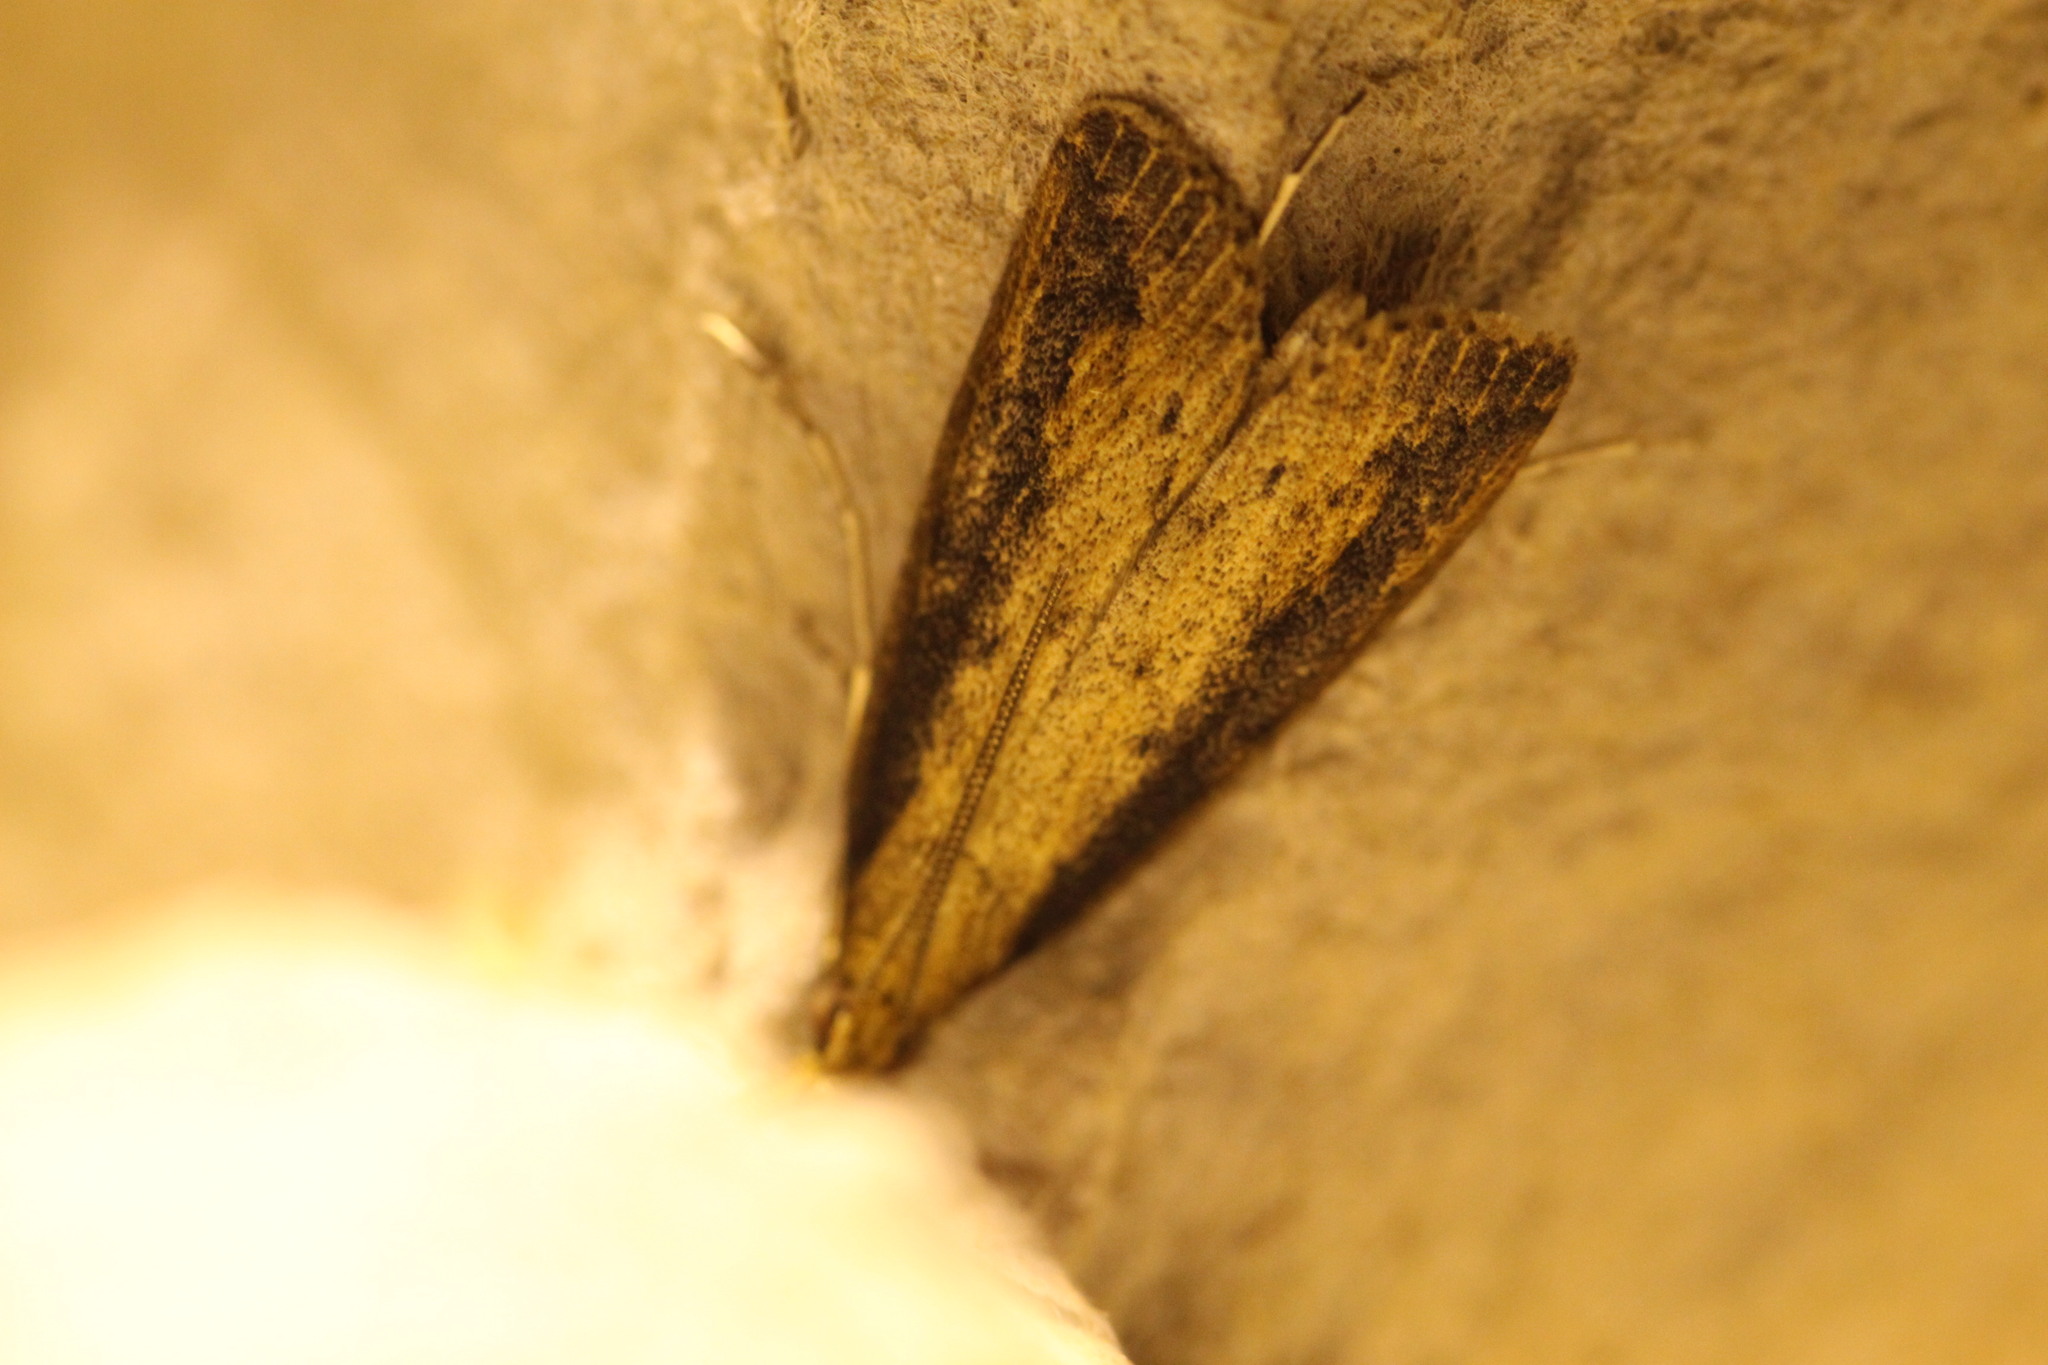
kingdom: Animalia
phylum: Arthropoda
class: Insecta
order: Lepidoptera
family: Crambidae
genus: Donacaula
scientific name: Donacaula forficella
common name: Pale water-veneer
